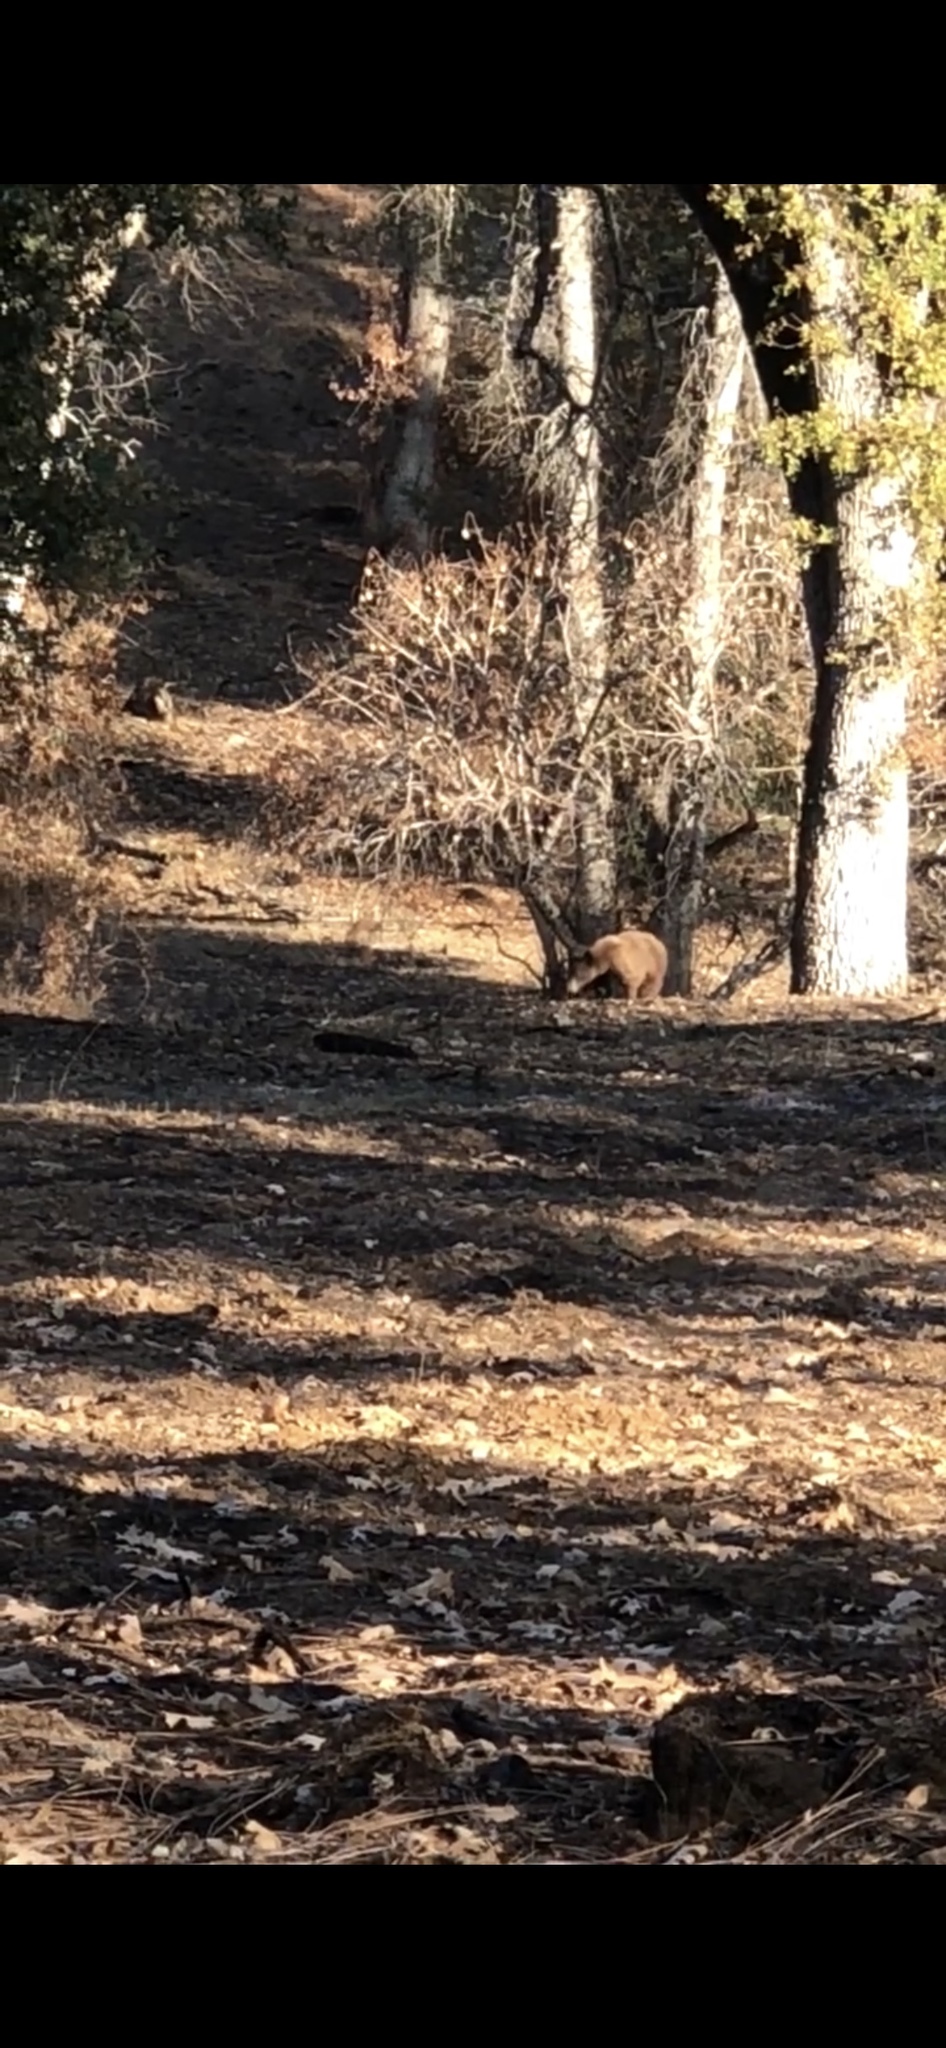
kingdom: Animalia
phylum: Chordata
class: Mammalia
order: Carnivora
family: Ursidae
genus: Ursus
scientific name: Ursus americanus
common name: American black bear
